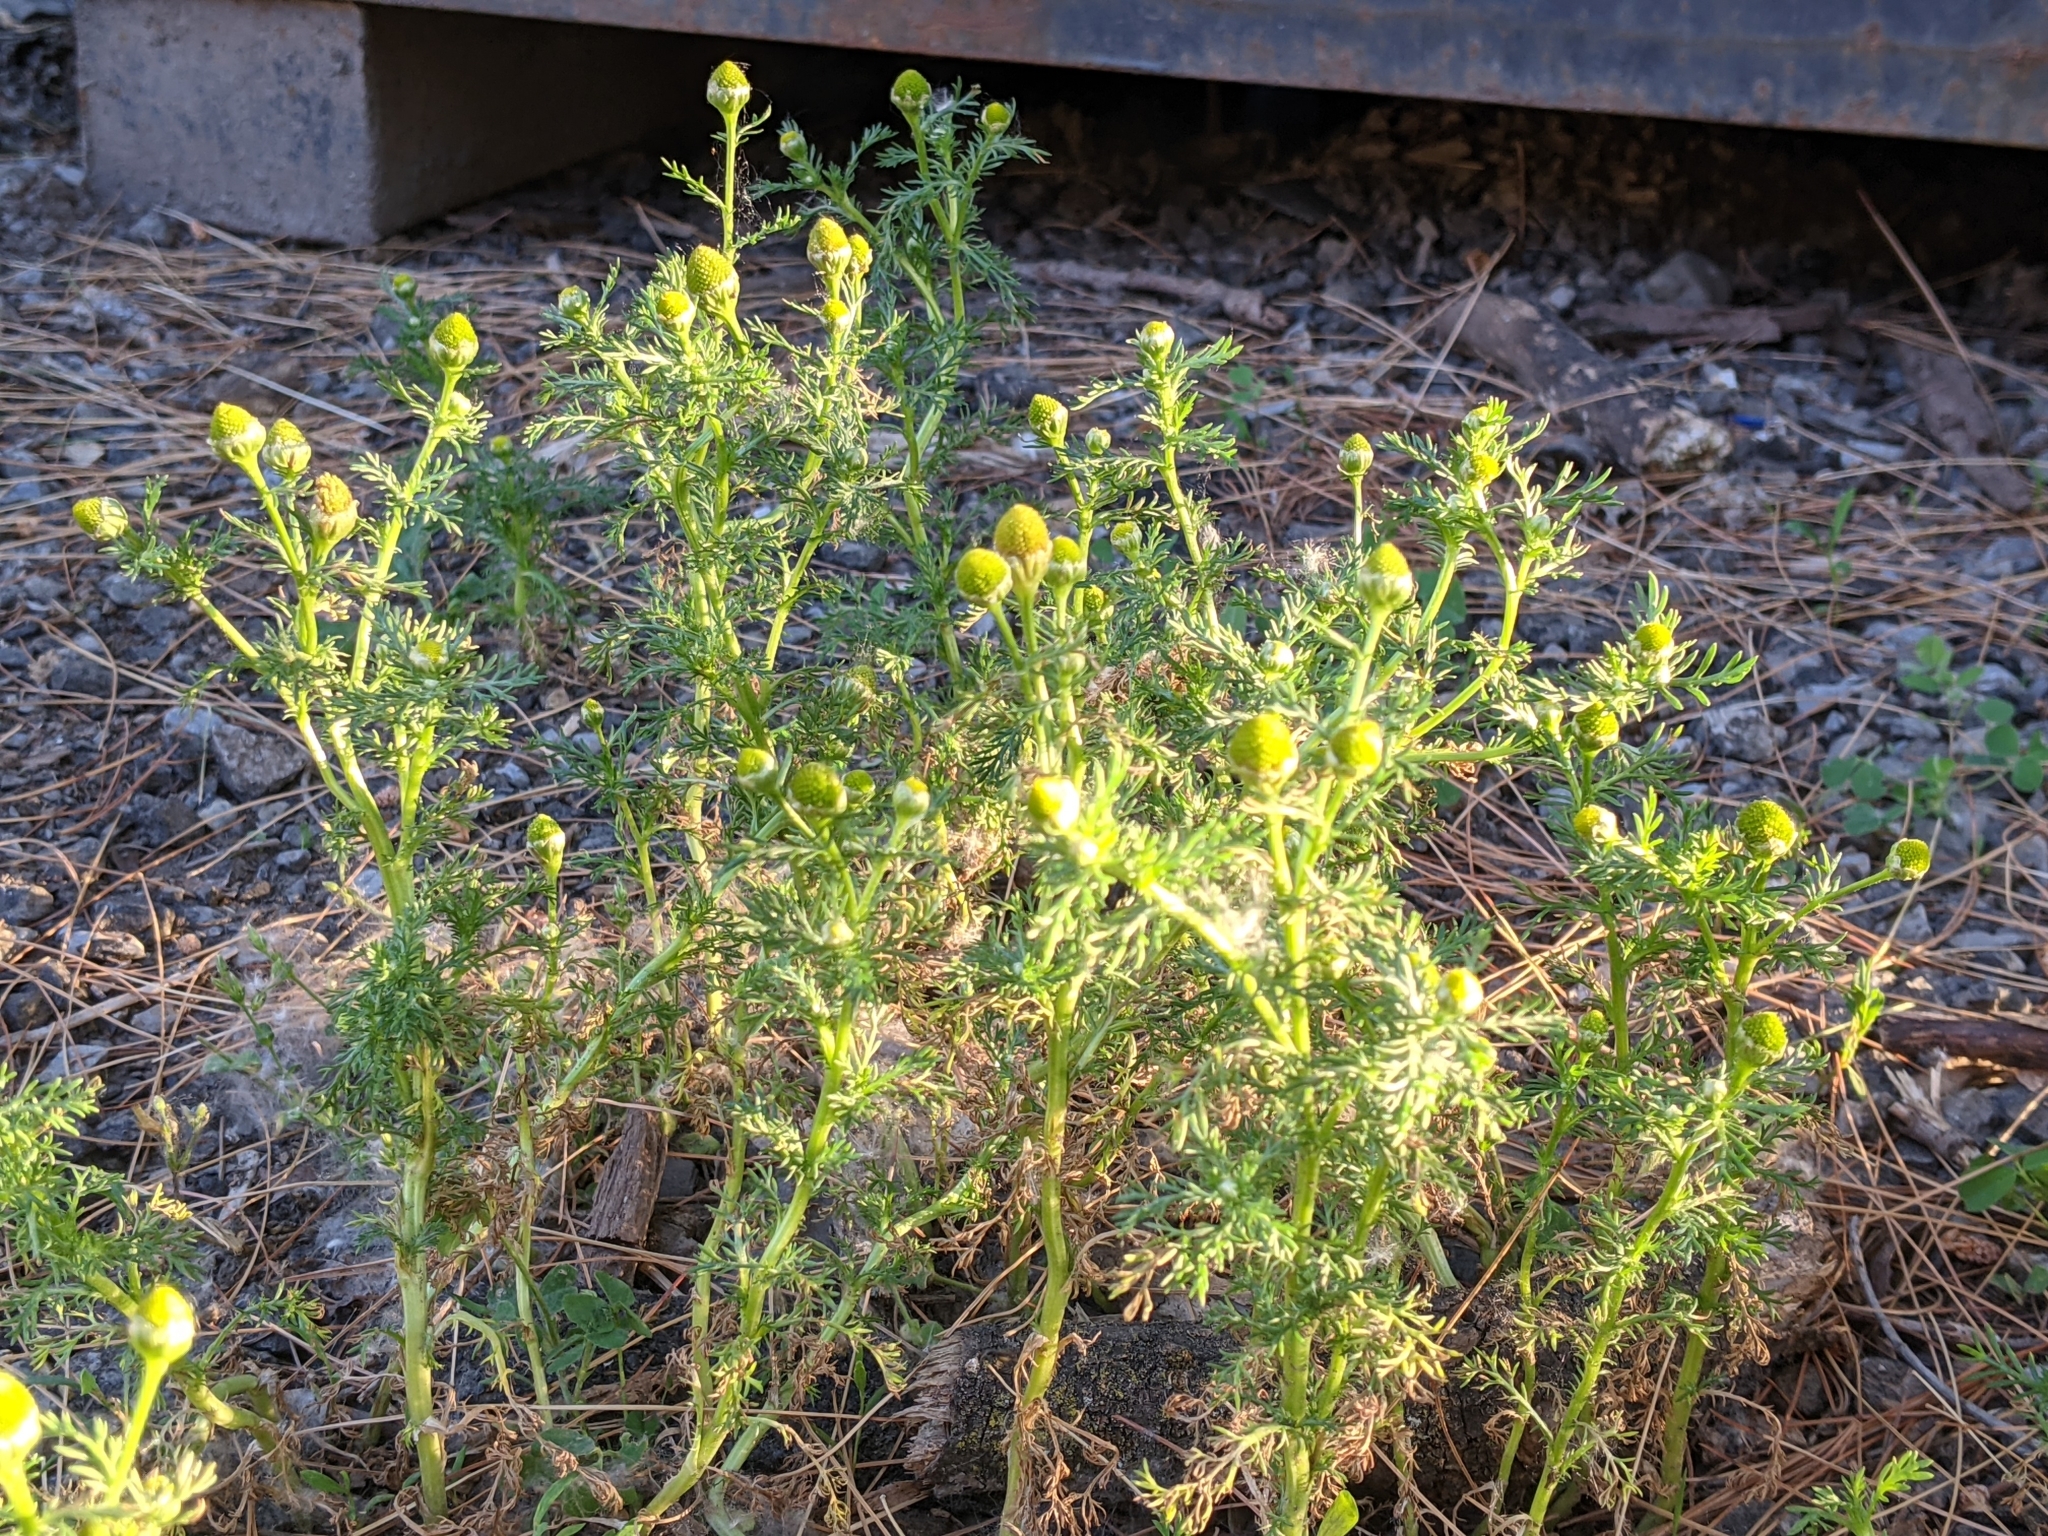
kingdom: Plantae
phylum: Tracheophyta
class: Magnoliopsida
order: Asterales
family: Asteraceae
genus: Matricaria
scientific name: Matricaria discoidea
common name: Disc mayweed
